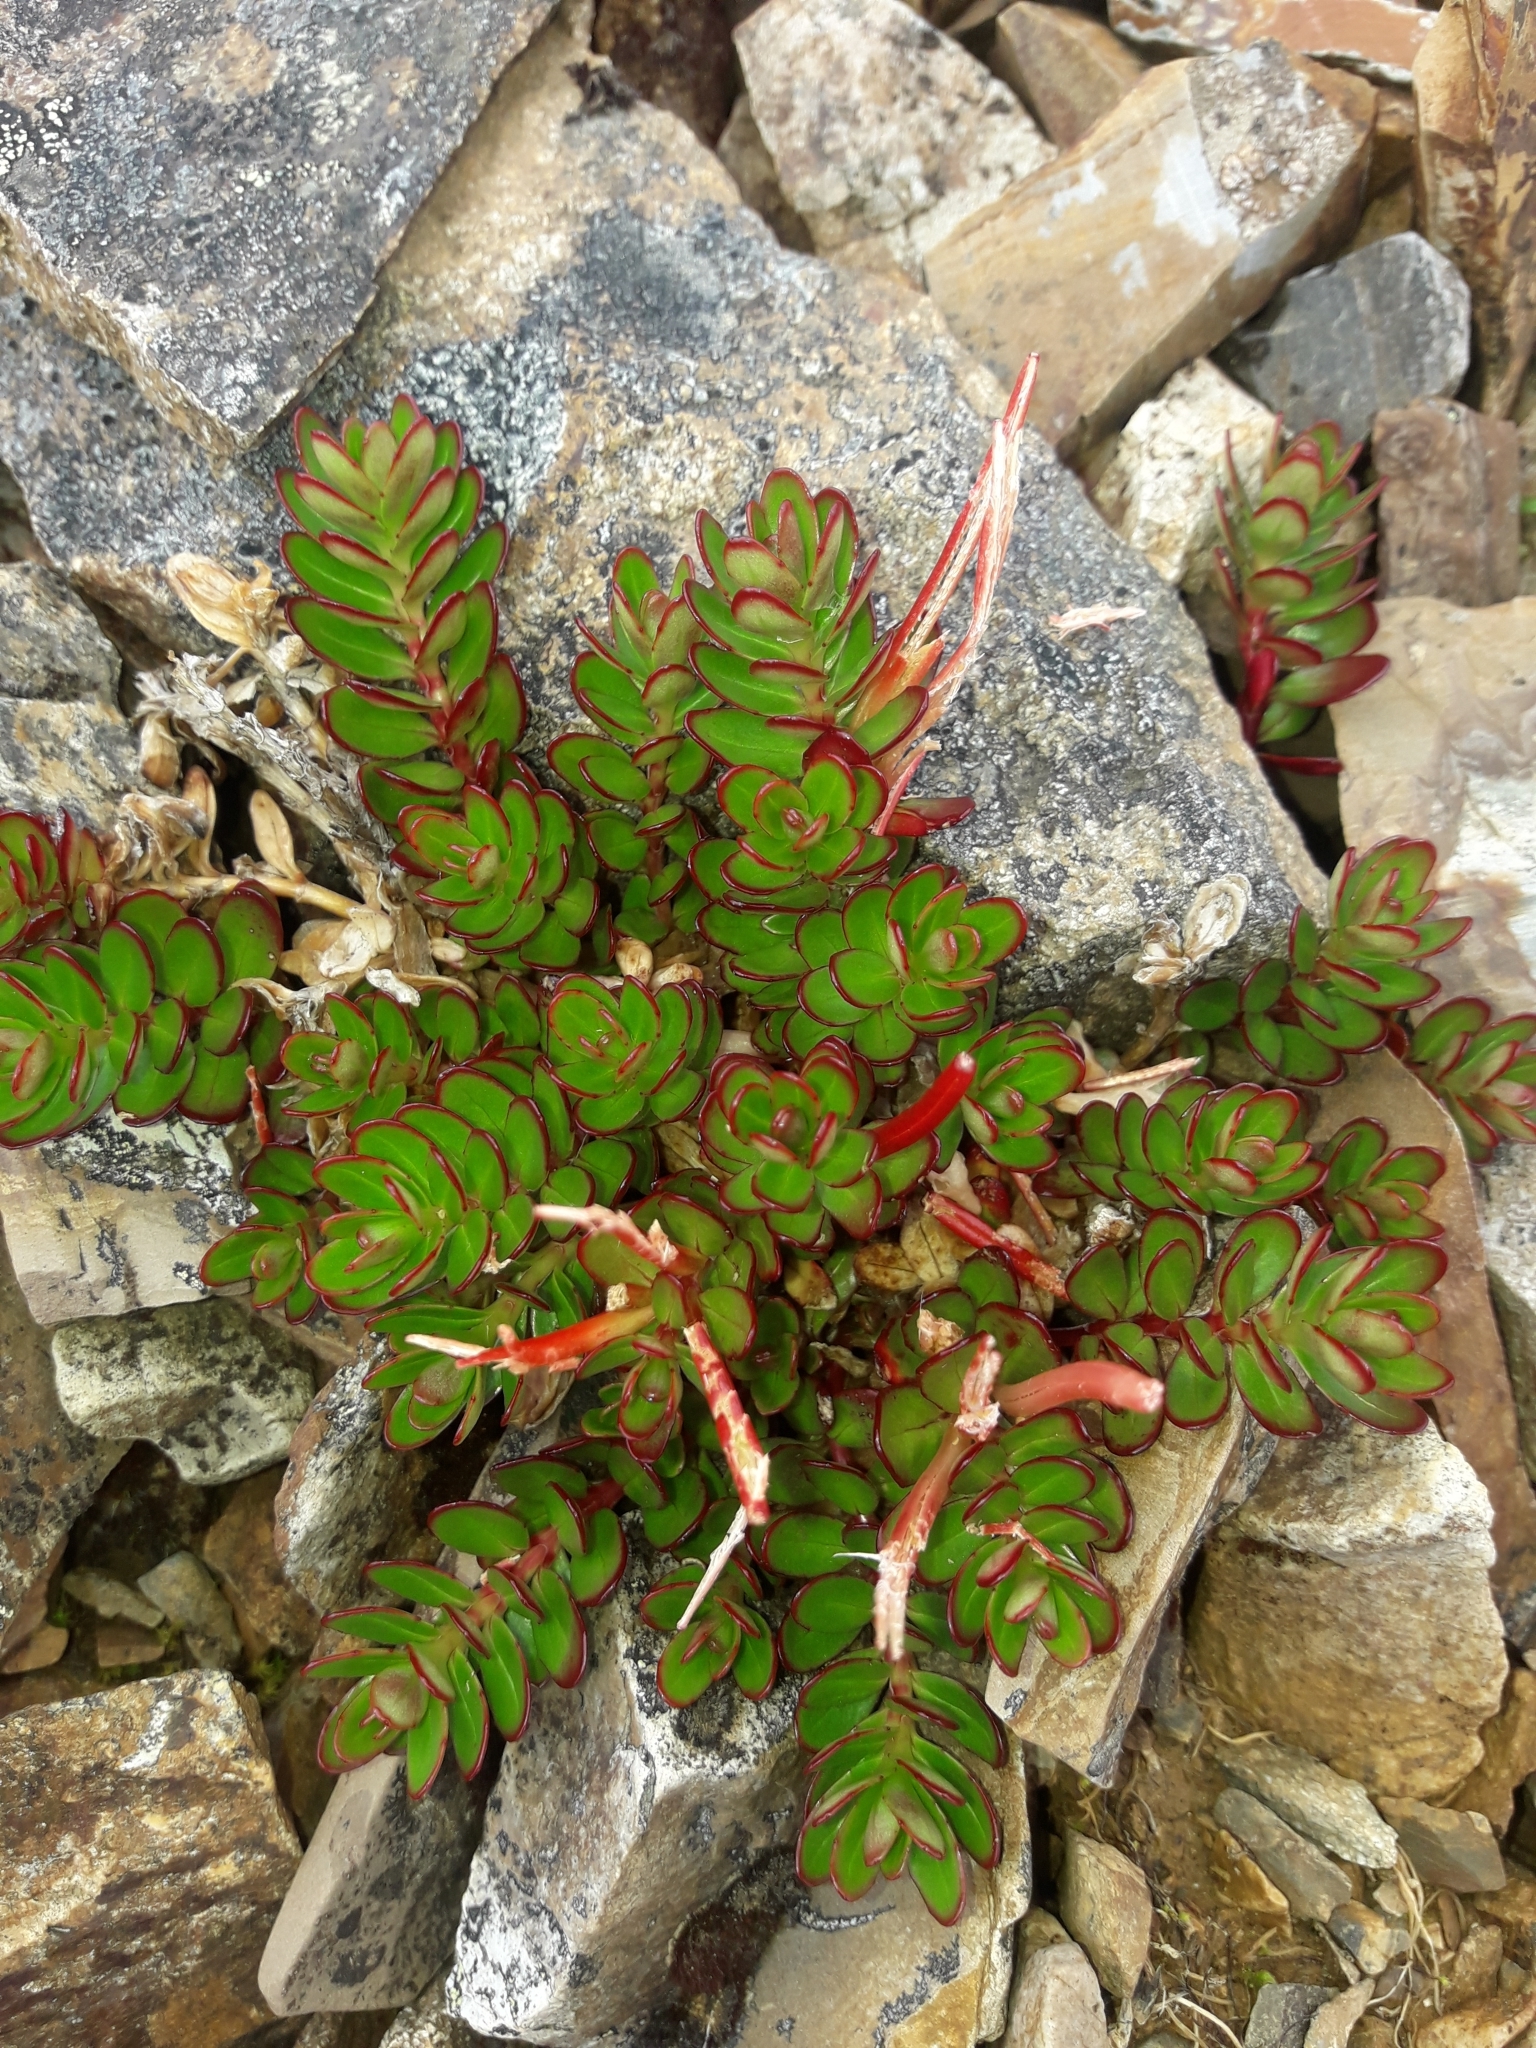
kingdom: Plantae
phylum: Tracheophyta
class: Magnoliopsida
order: Myrtales
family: Onagraceae
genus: Epilobium
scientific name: Epilobium glabellum
